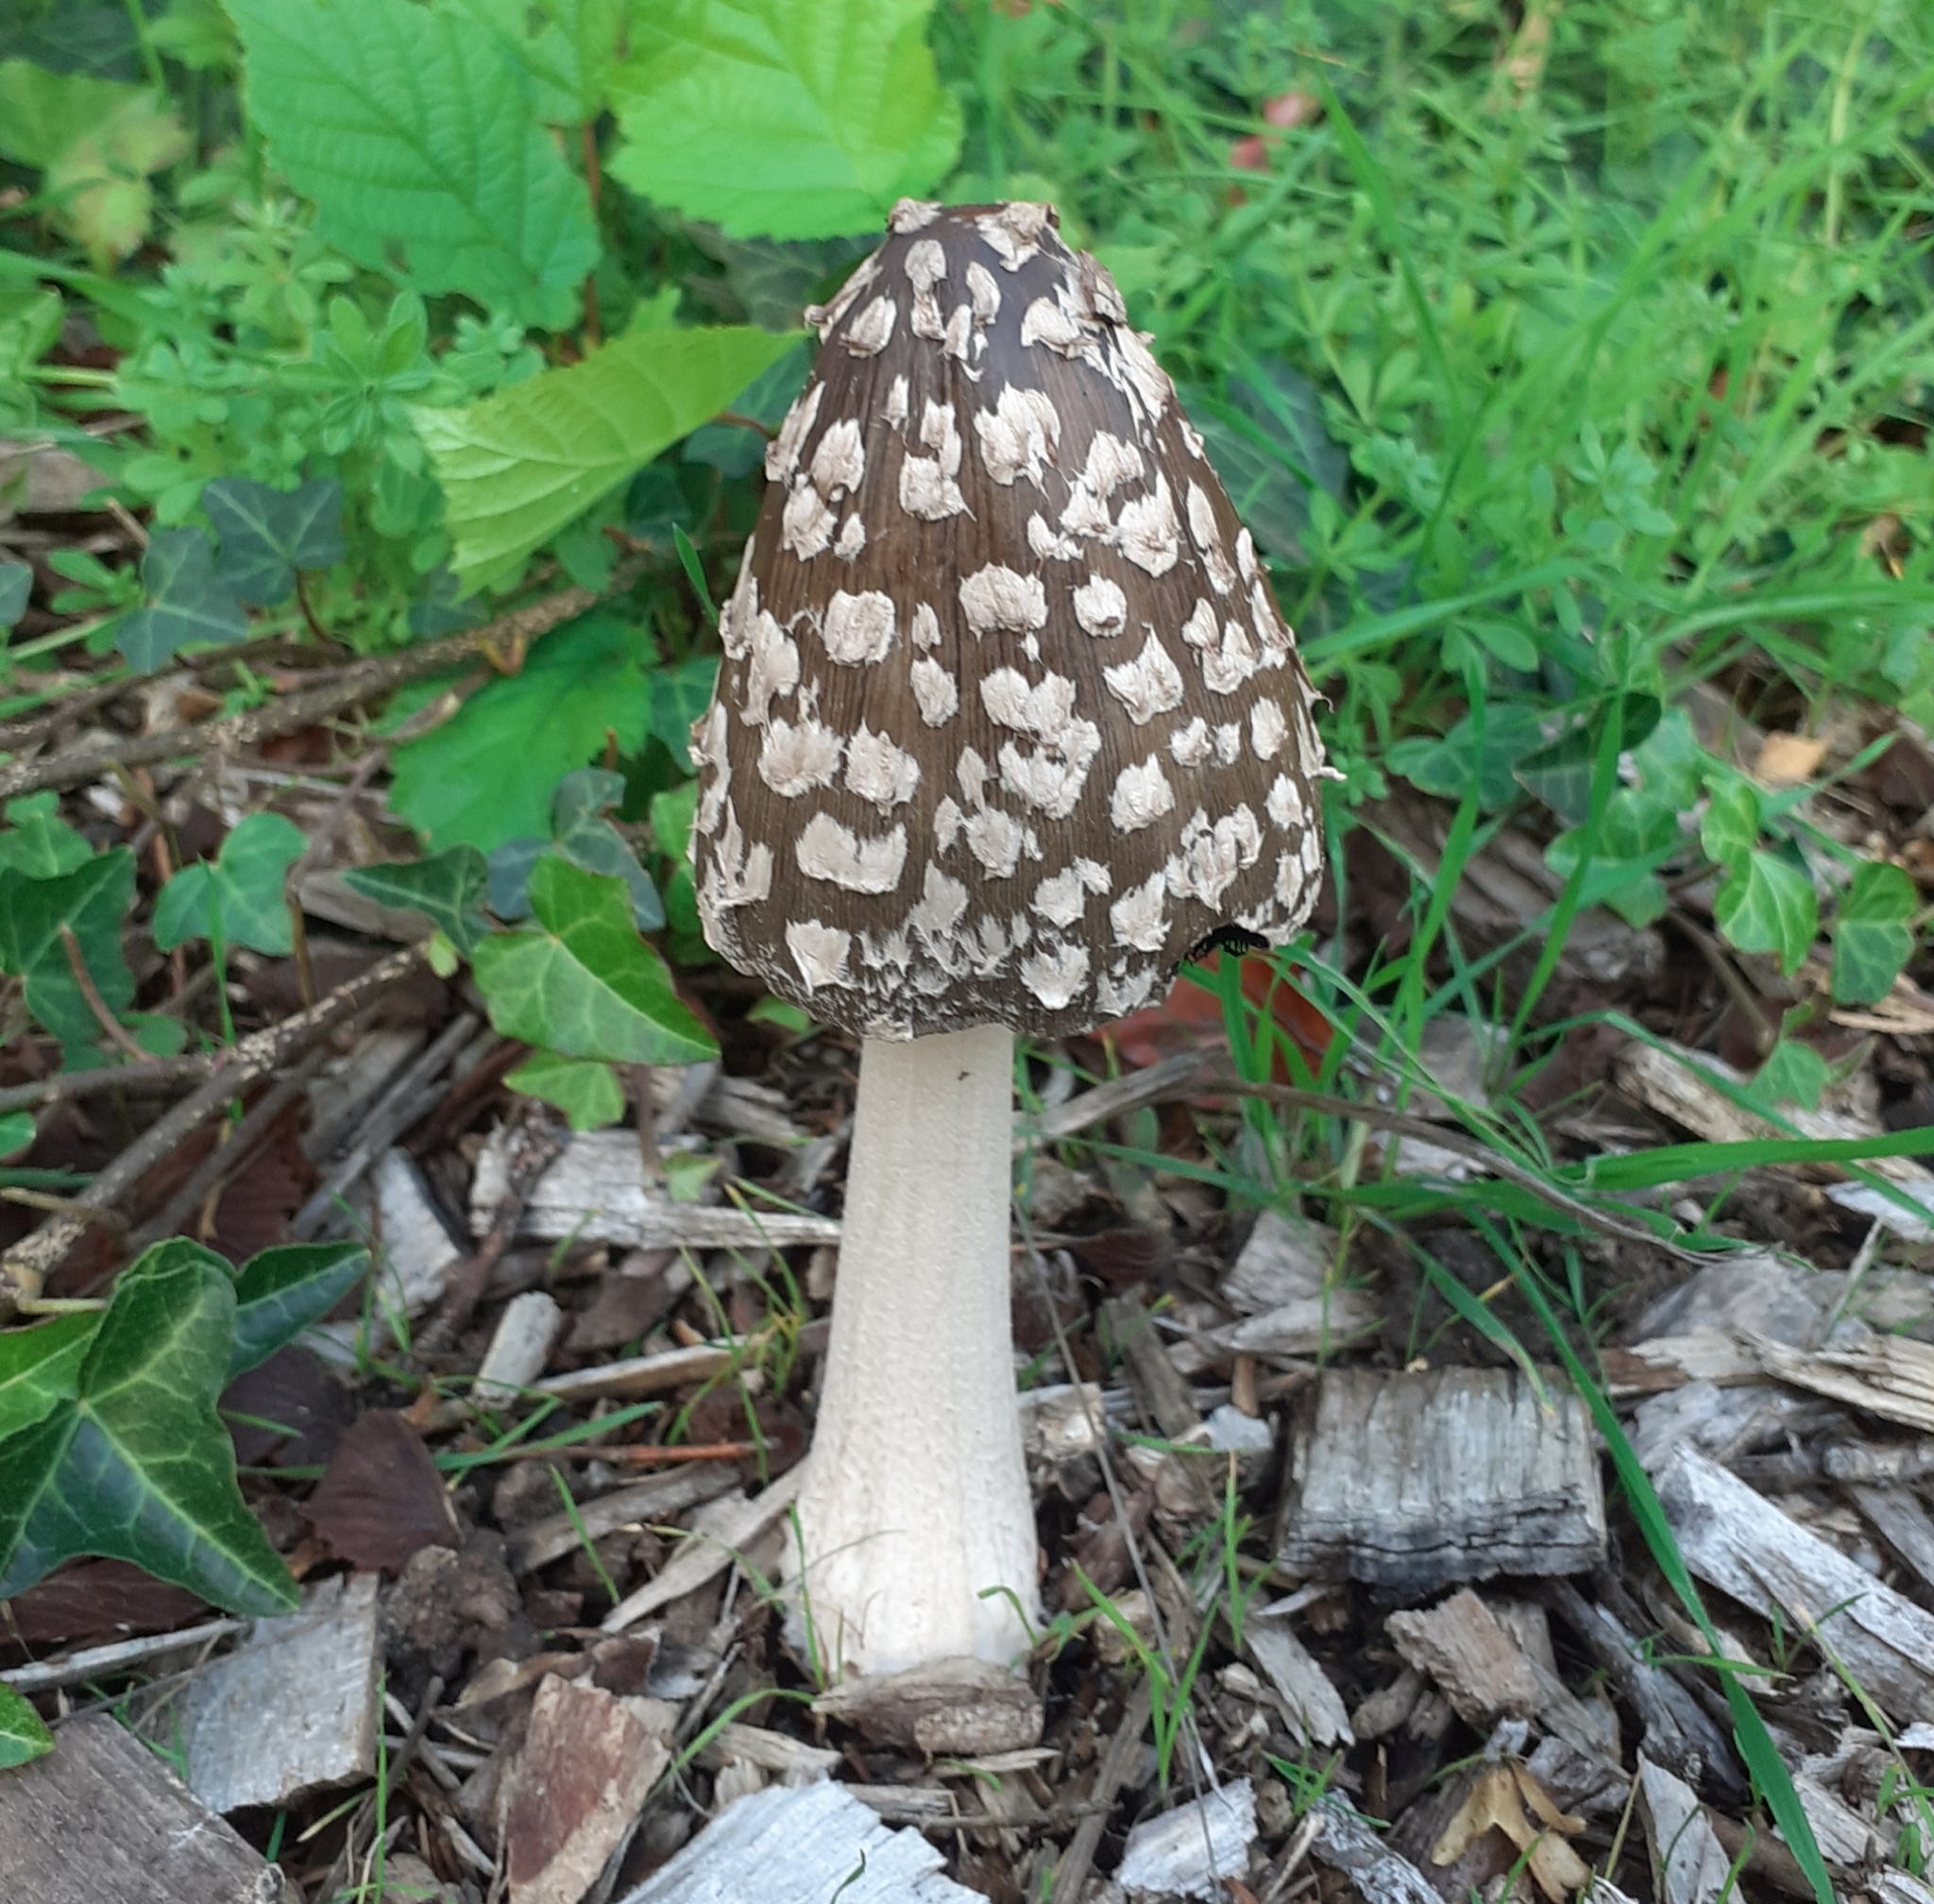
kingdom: Fungi
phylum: Basidiomycota
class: Agaricomycetes
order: Agaricales
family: Psathyrellaceae
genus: Coprinopsis
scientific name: Coprinopsis picacea
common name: Magpie inkcap
